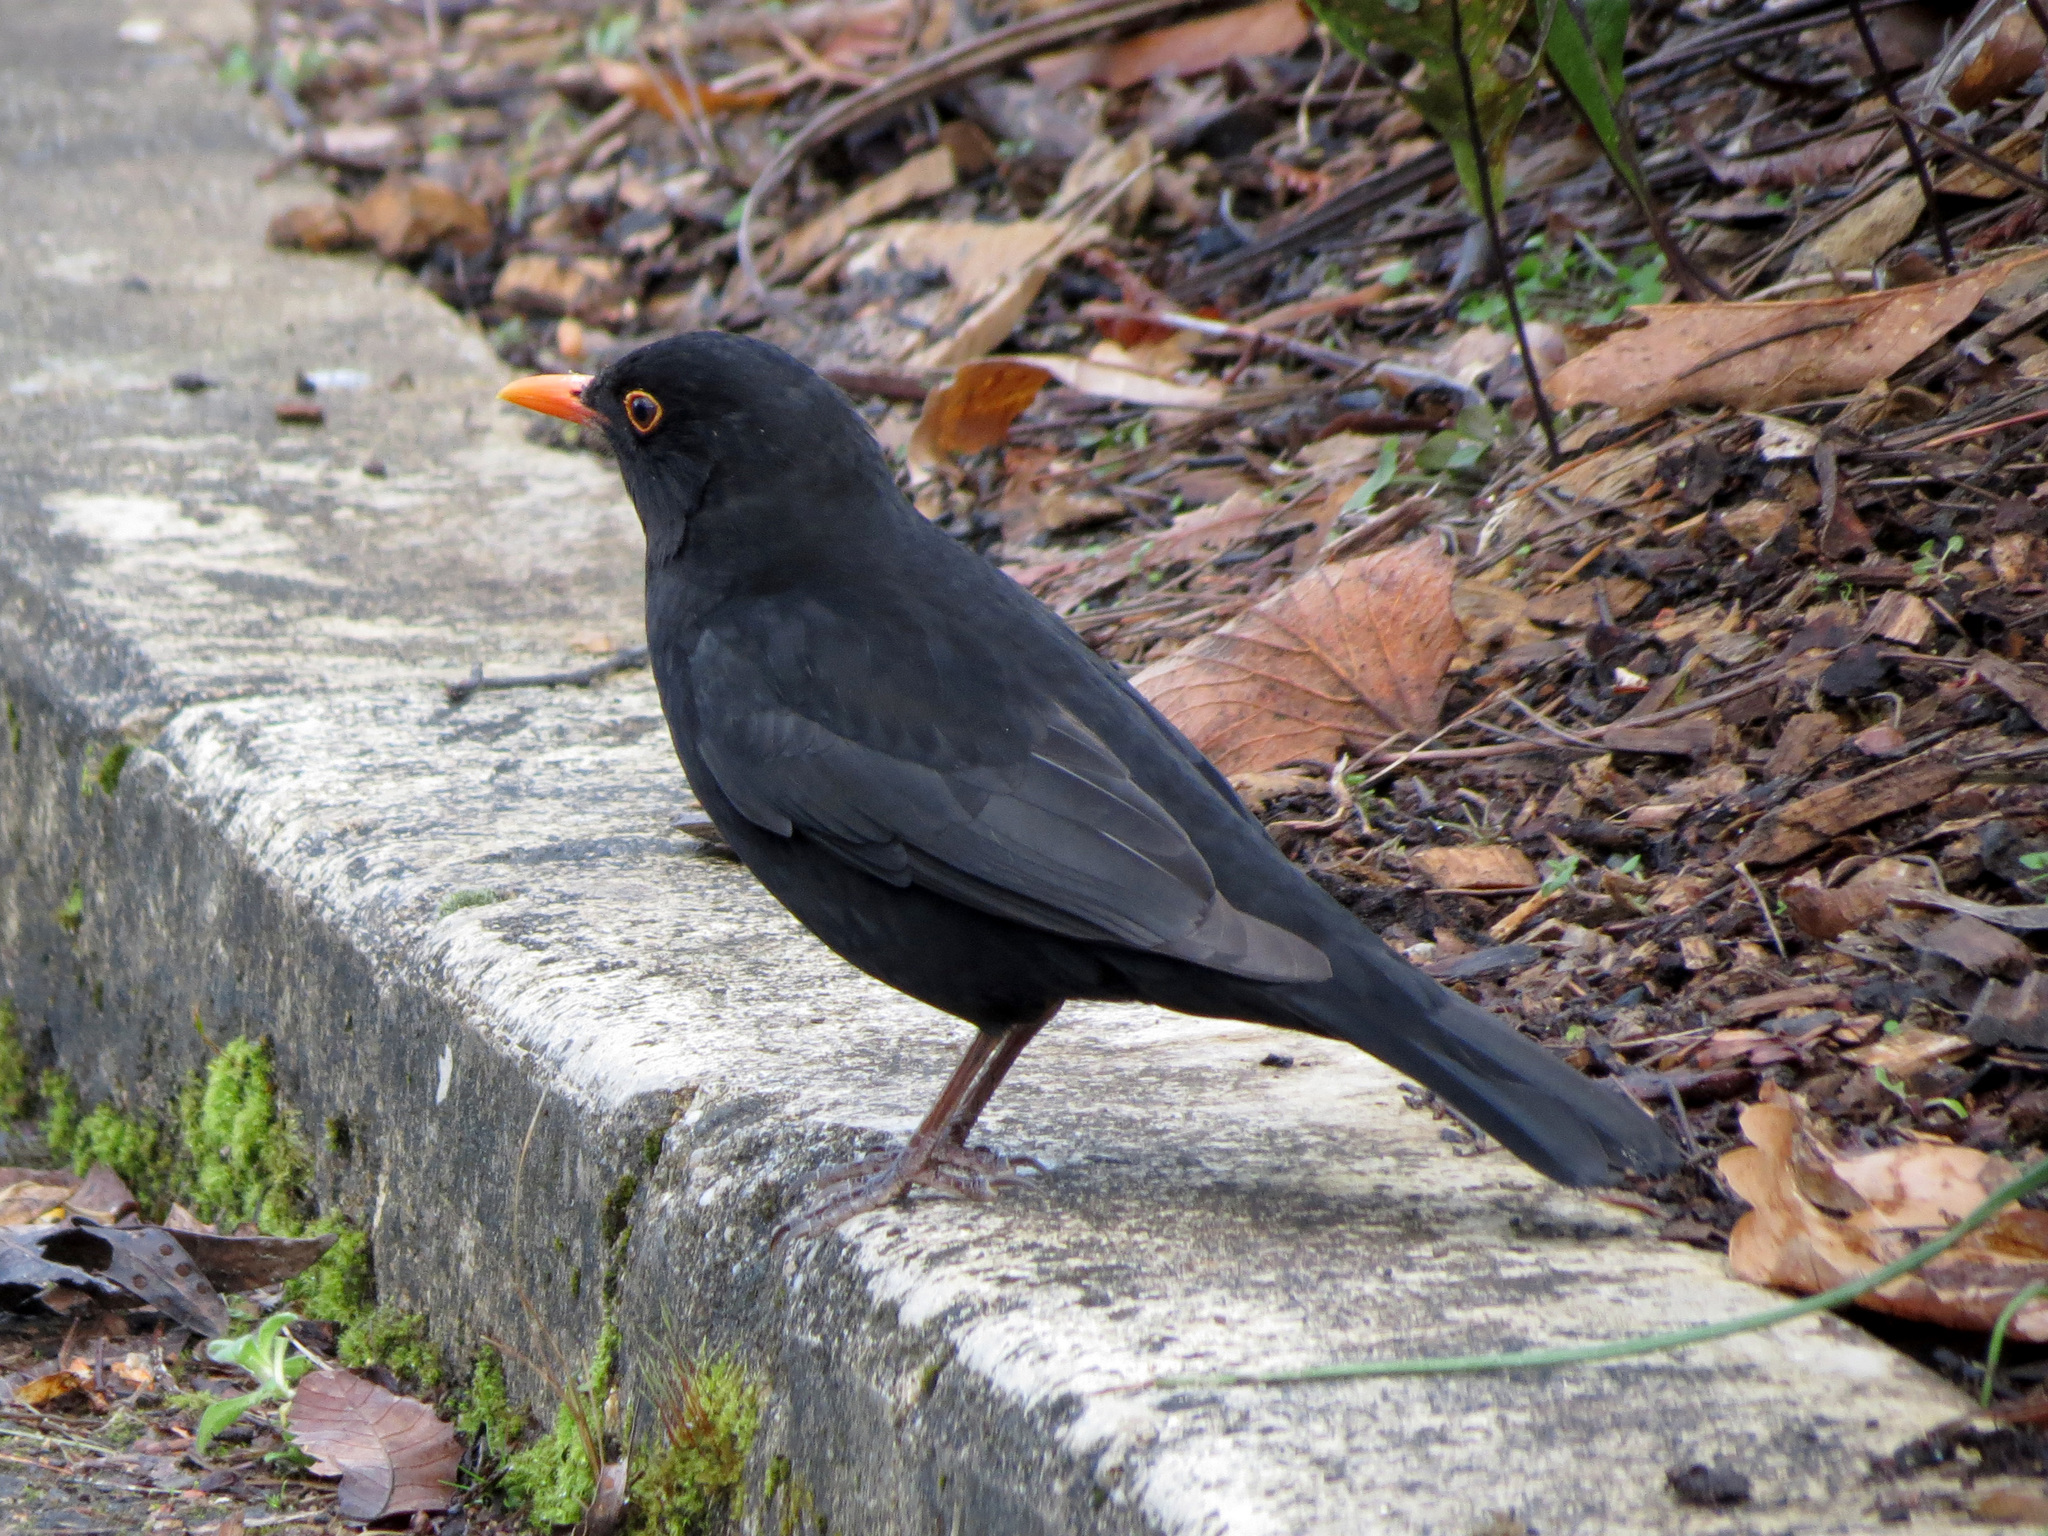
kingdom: Animalia
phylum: Chordata
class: Aves
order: Passeriformes
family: Turdidae
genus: Turdus
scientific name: Turdus merula
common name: Common blackbird
